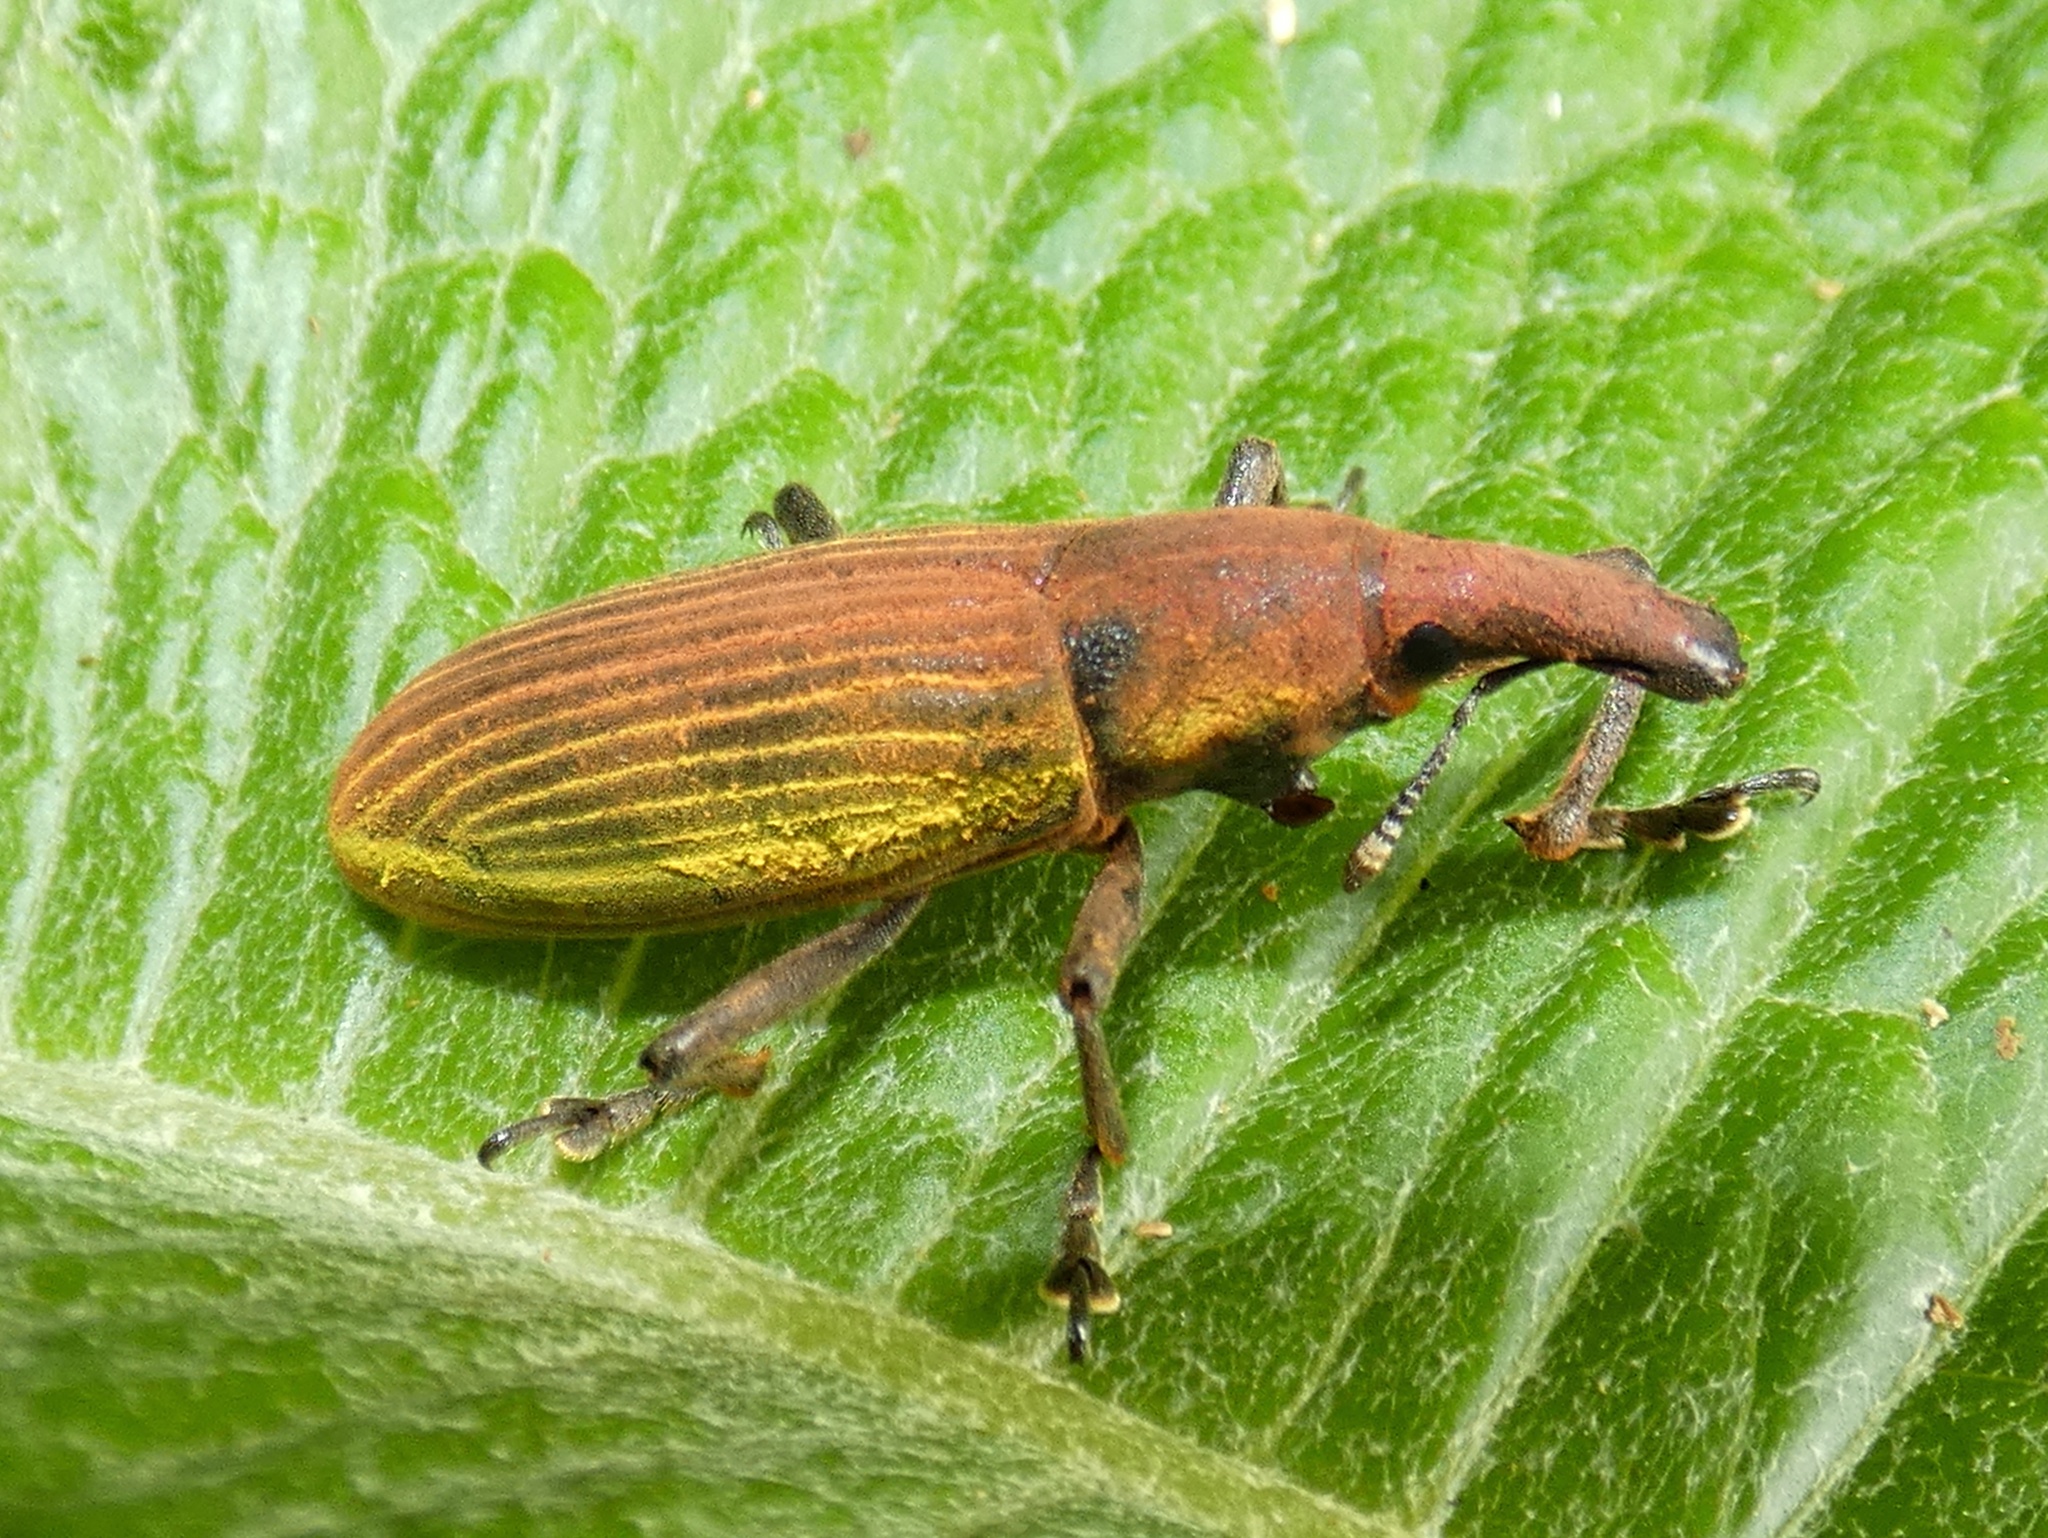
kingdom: Animalia
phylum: Arthropoda
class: Insecta
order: Coleoptera
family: Curculionidae
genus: Lixus
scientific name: Lixus apterus
